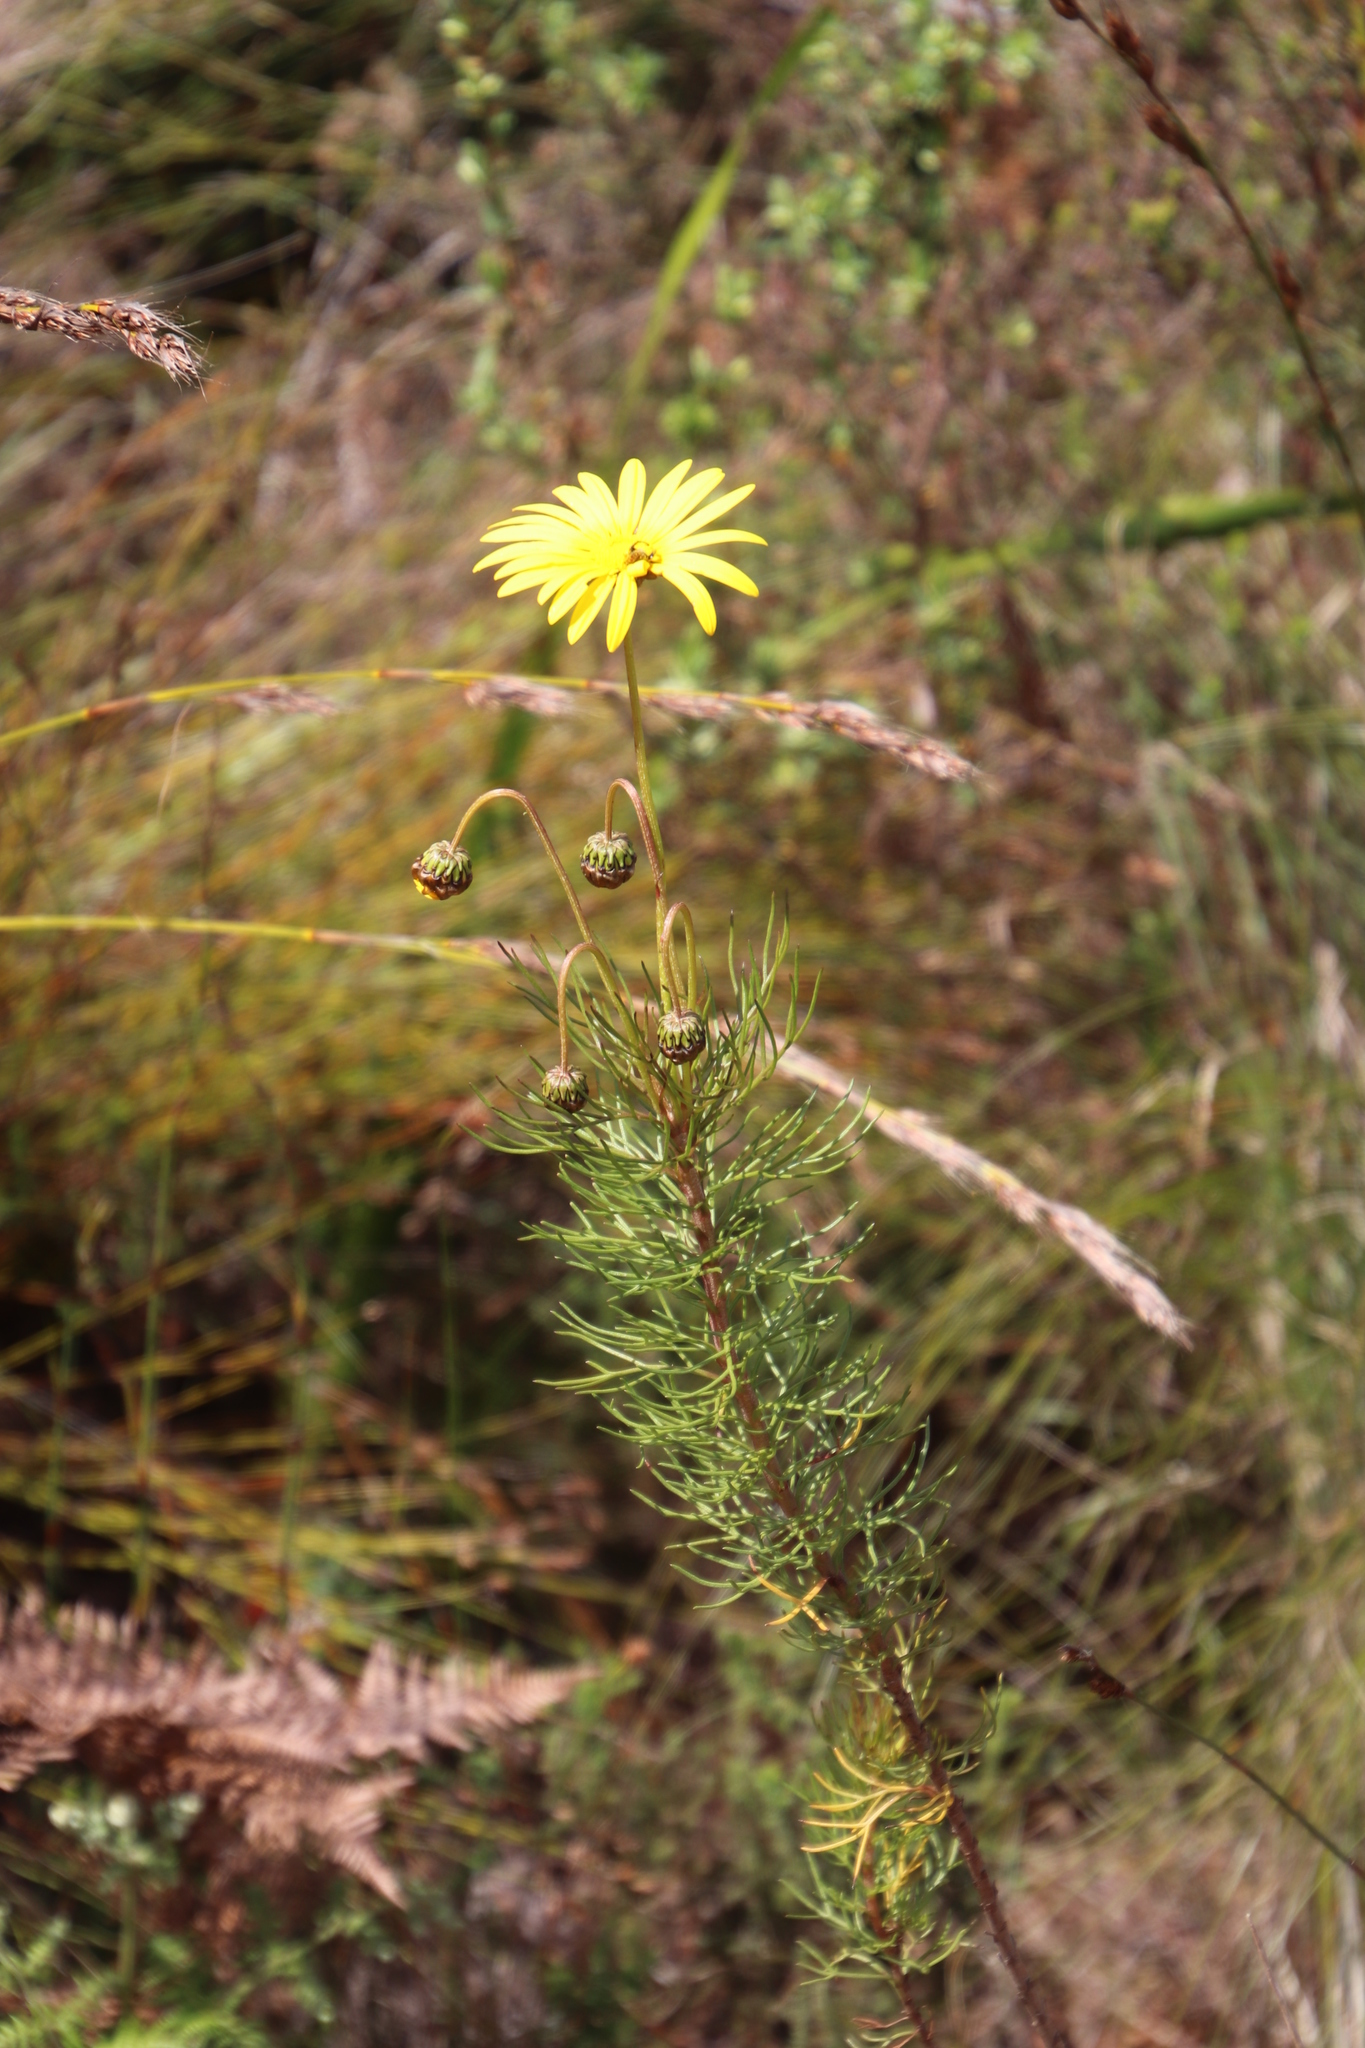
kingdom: Plantae
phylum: Tracheophyta
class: Magnoliopsida
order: Asterales
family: Asteraceae
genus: Euryops
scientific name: Euryops abrotanifolius
